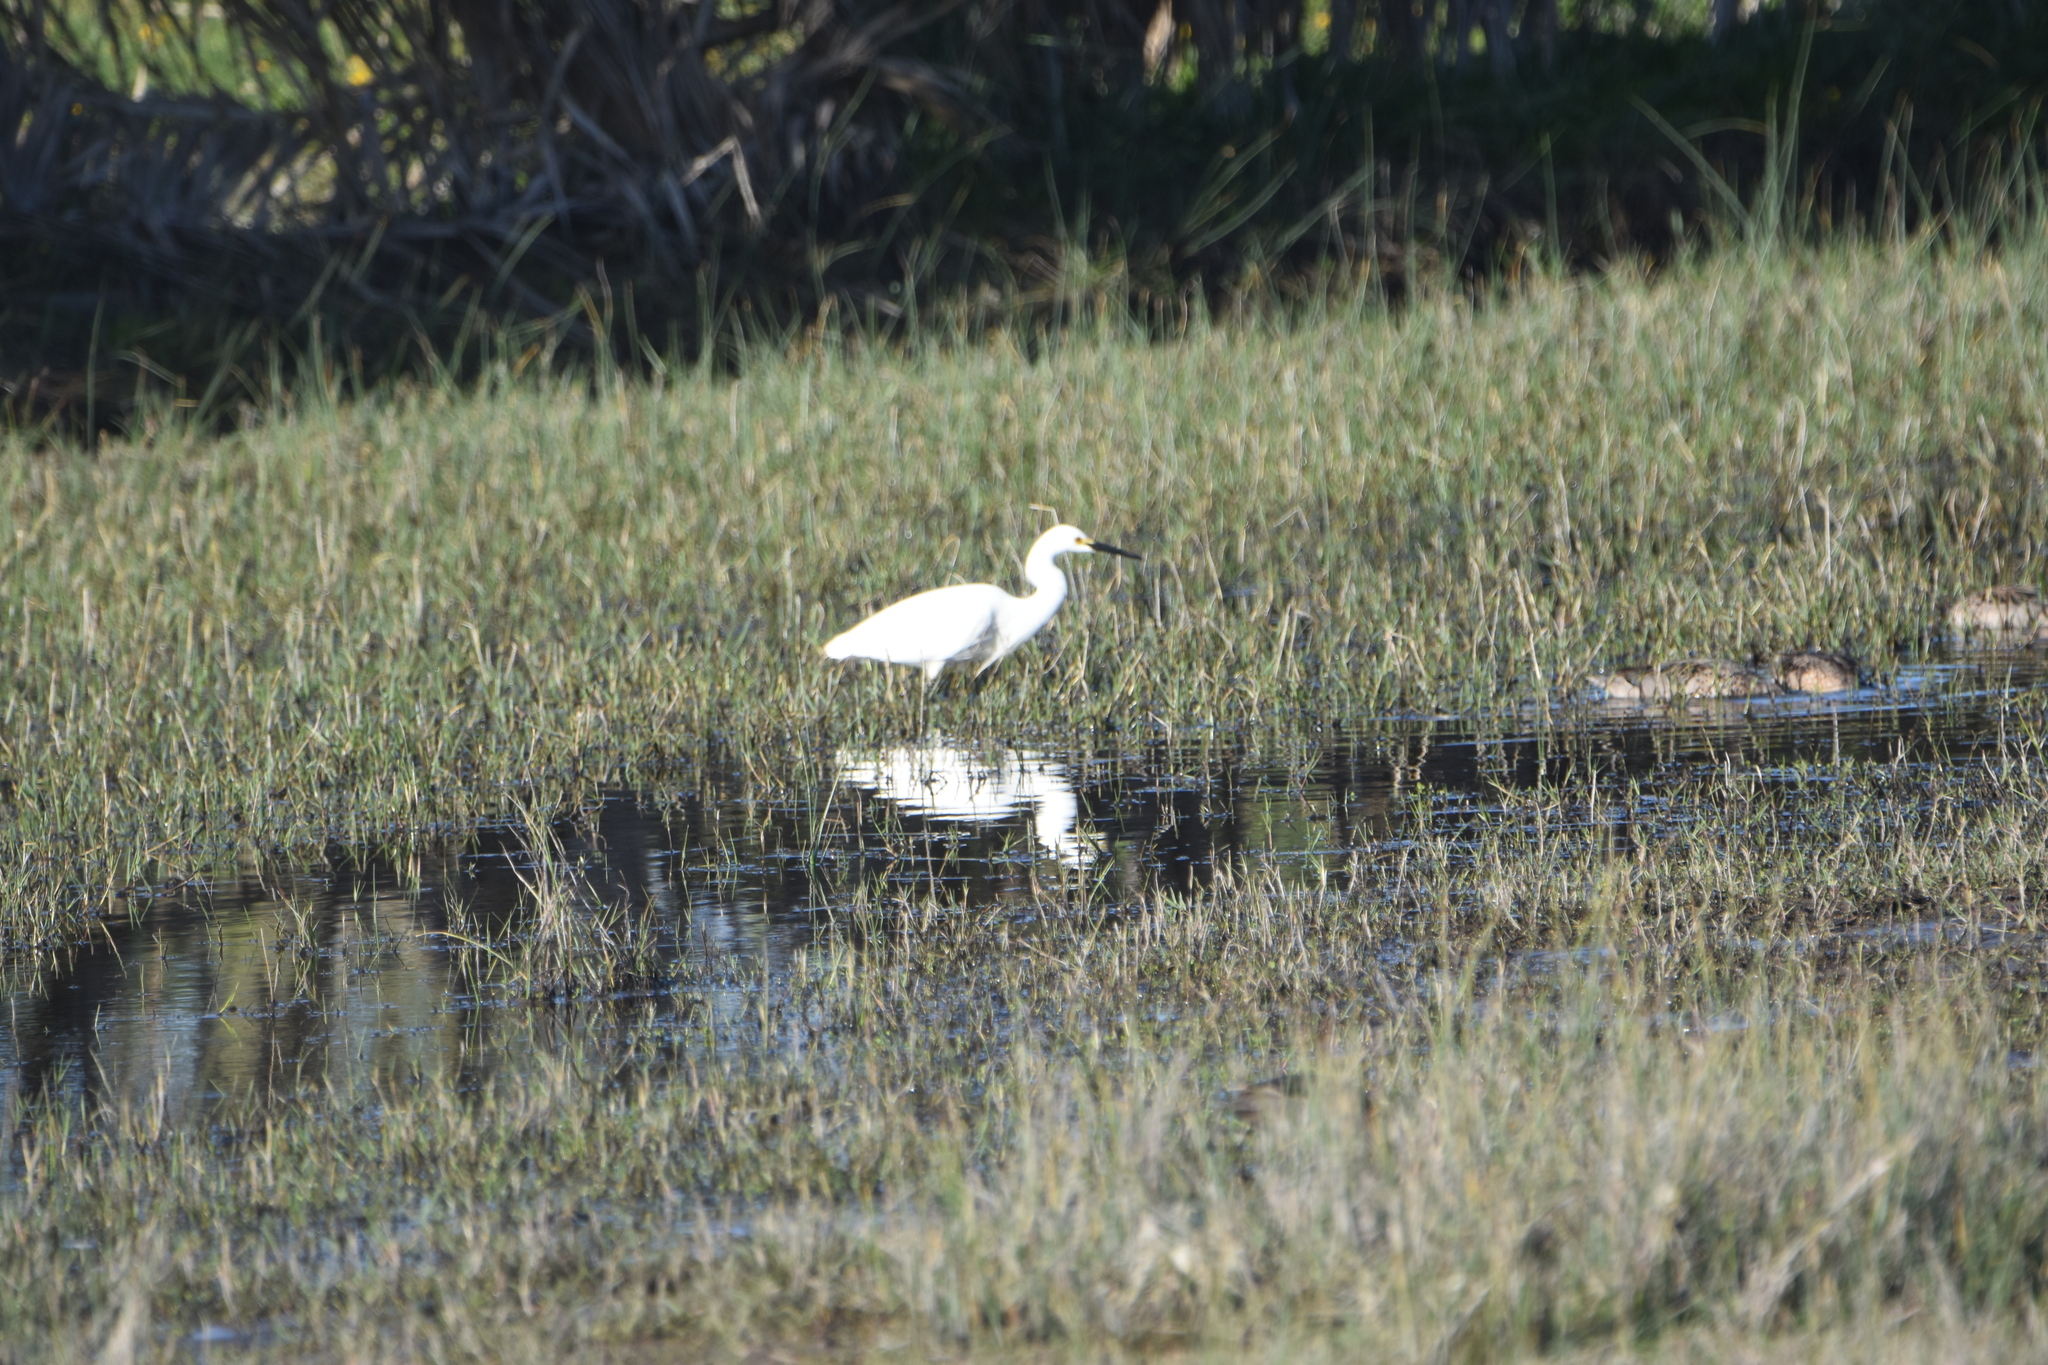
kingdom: Animalia
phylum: Chordata
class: Aves
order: Pelecaniformes
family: Ardeidae
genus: Egretta
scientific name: Egretta thula
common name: Snowy egret
